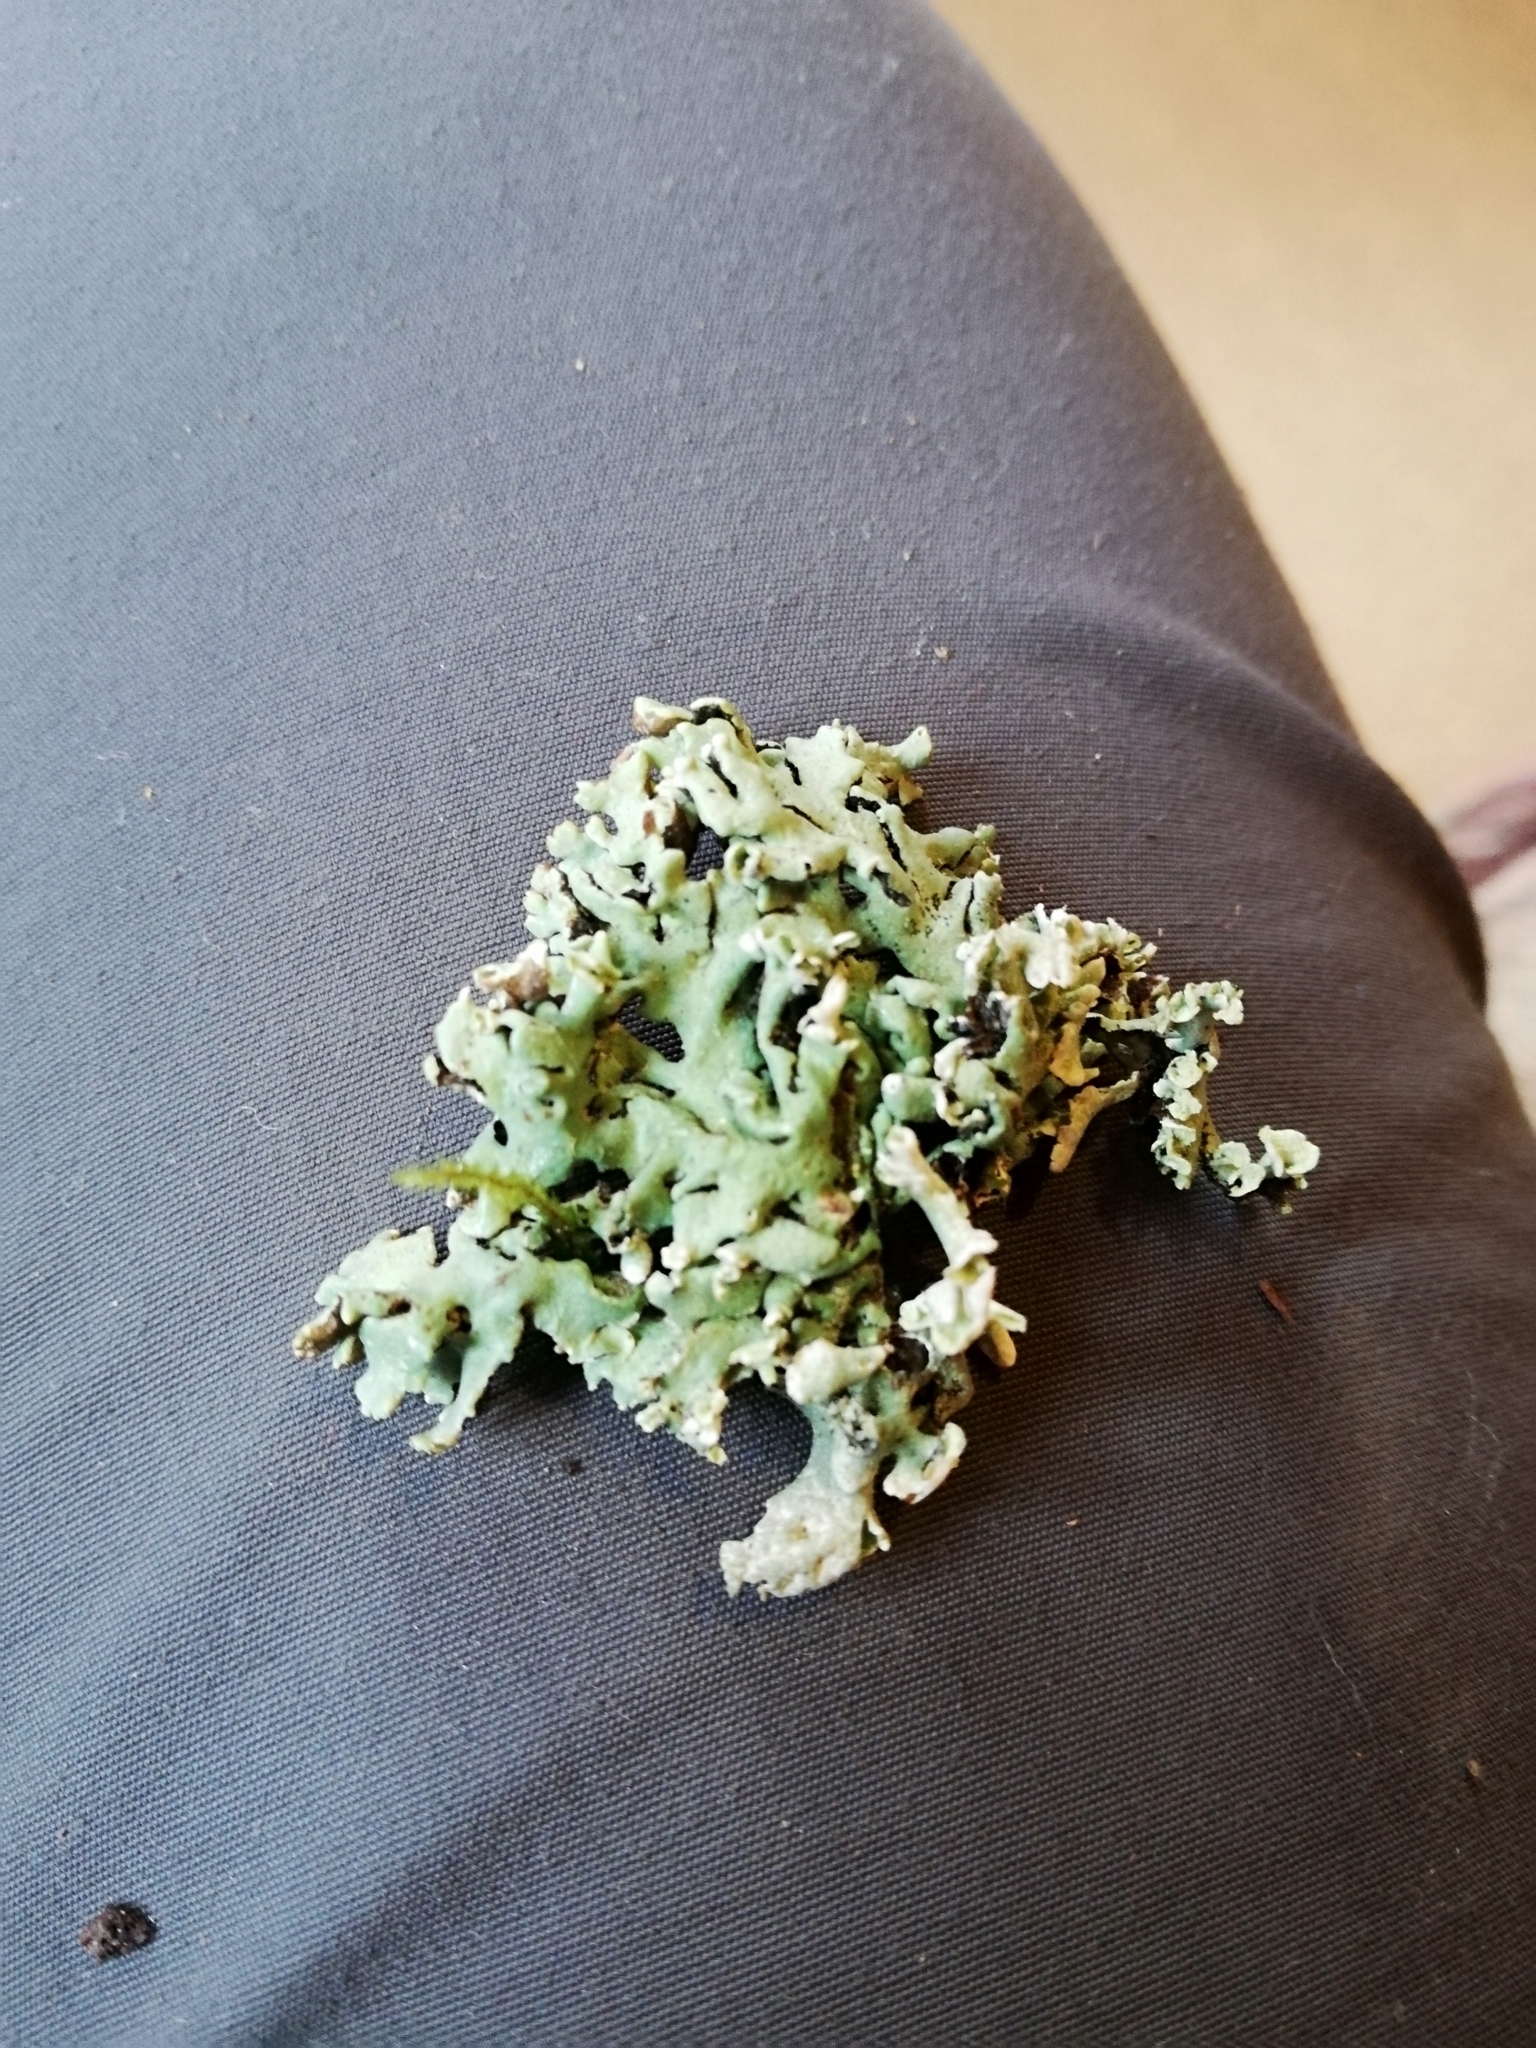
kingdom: Fungi
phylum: Ascomycota
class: Lecanoromycetes
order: Lecanorales
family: Parmeliaceae
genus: Hypogymnia
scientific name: Hypogymnia physodes
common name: Dark crottle
